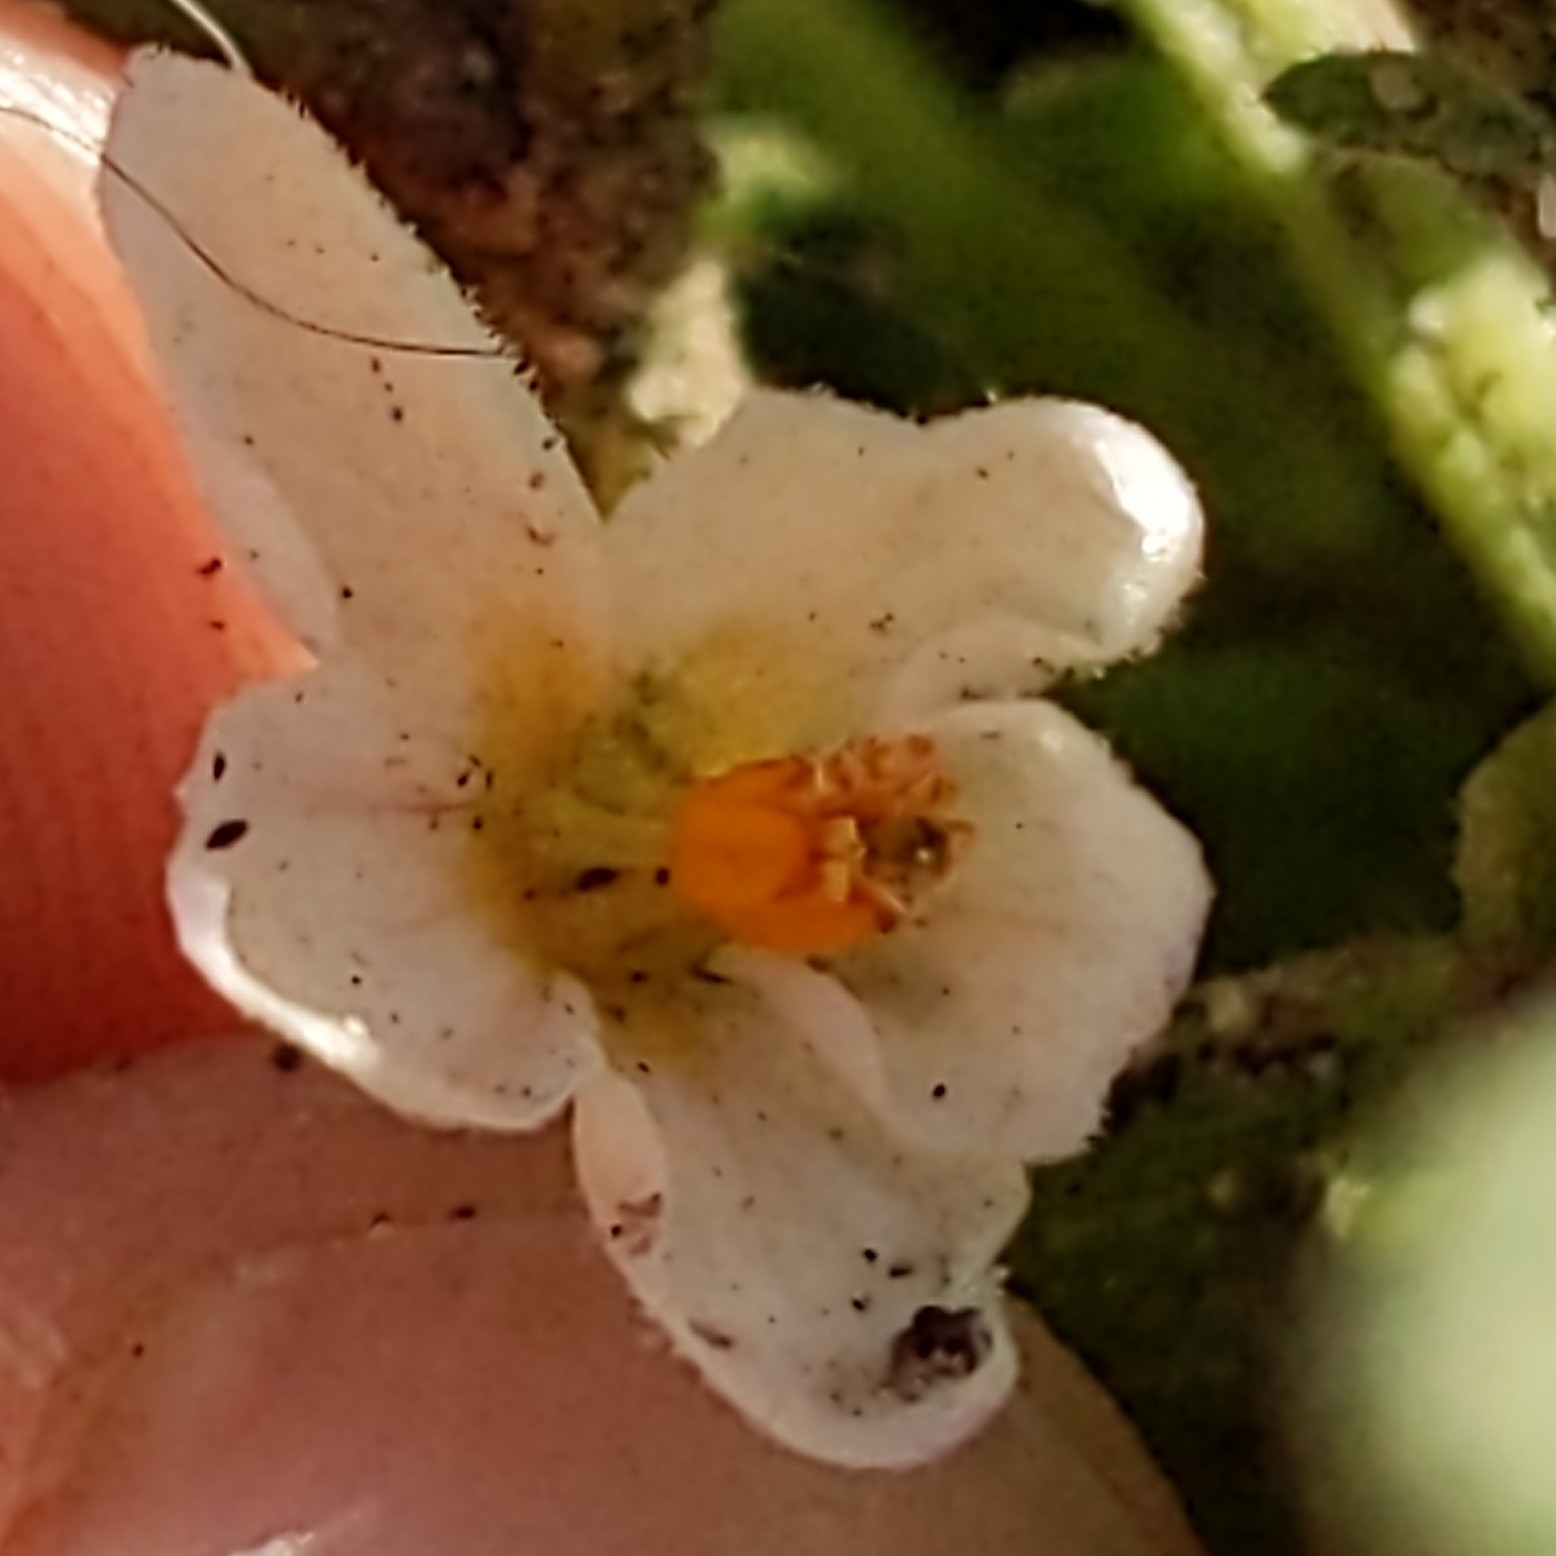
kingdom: Plantae
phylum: Tracheophyta
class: Magnoliopsida
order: Solanales
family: Solanaceae
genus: Solanum
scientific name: Solanum nigrum
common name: Black nightshade
